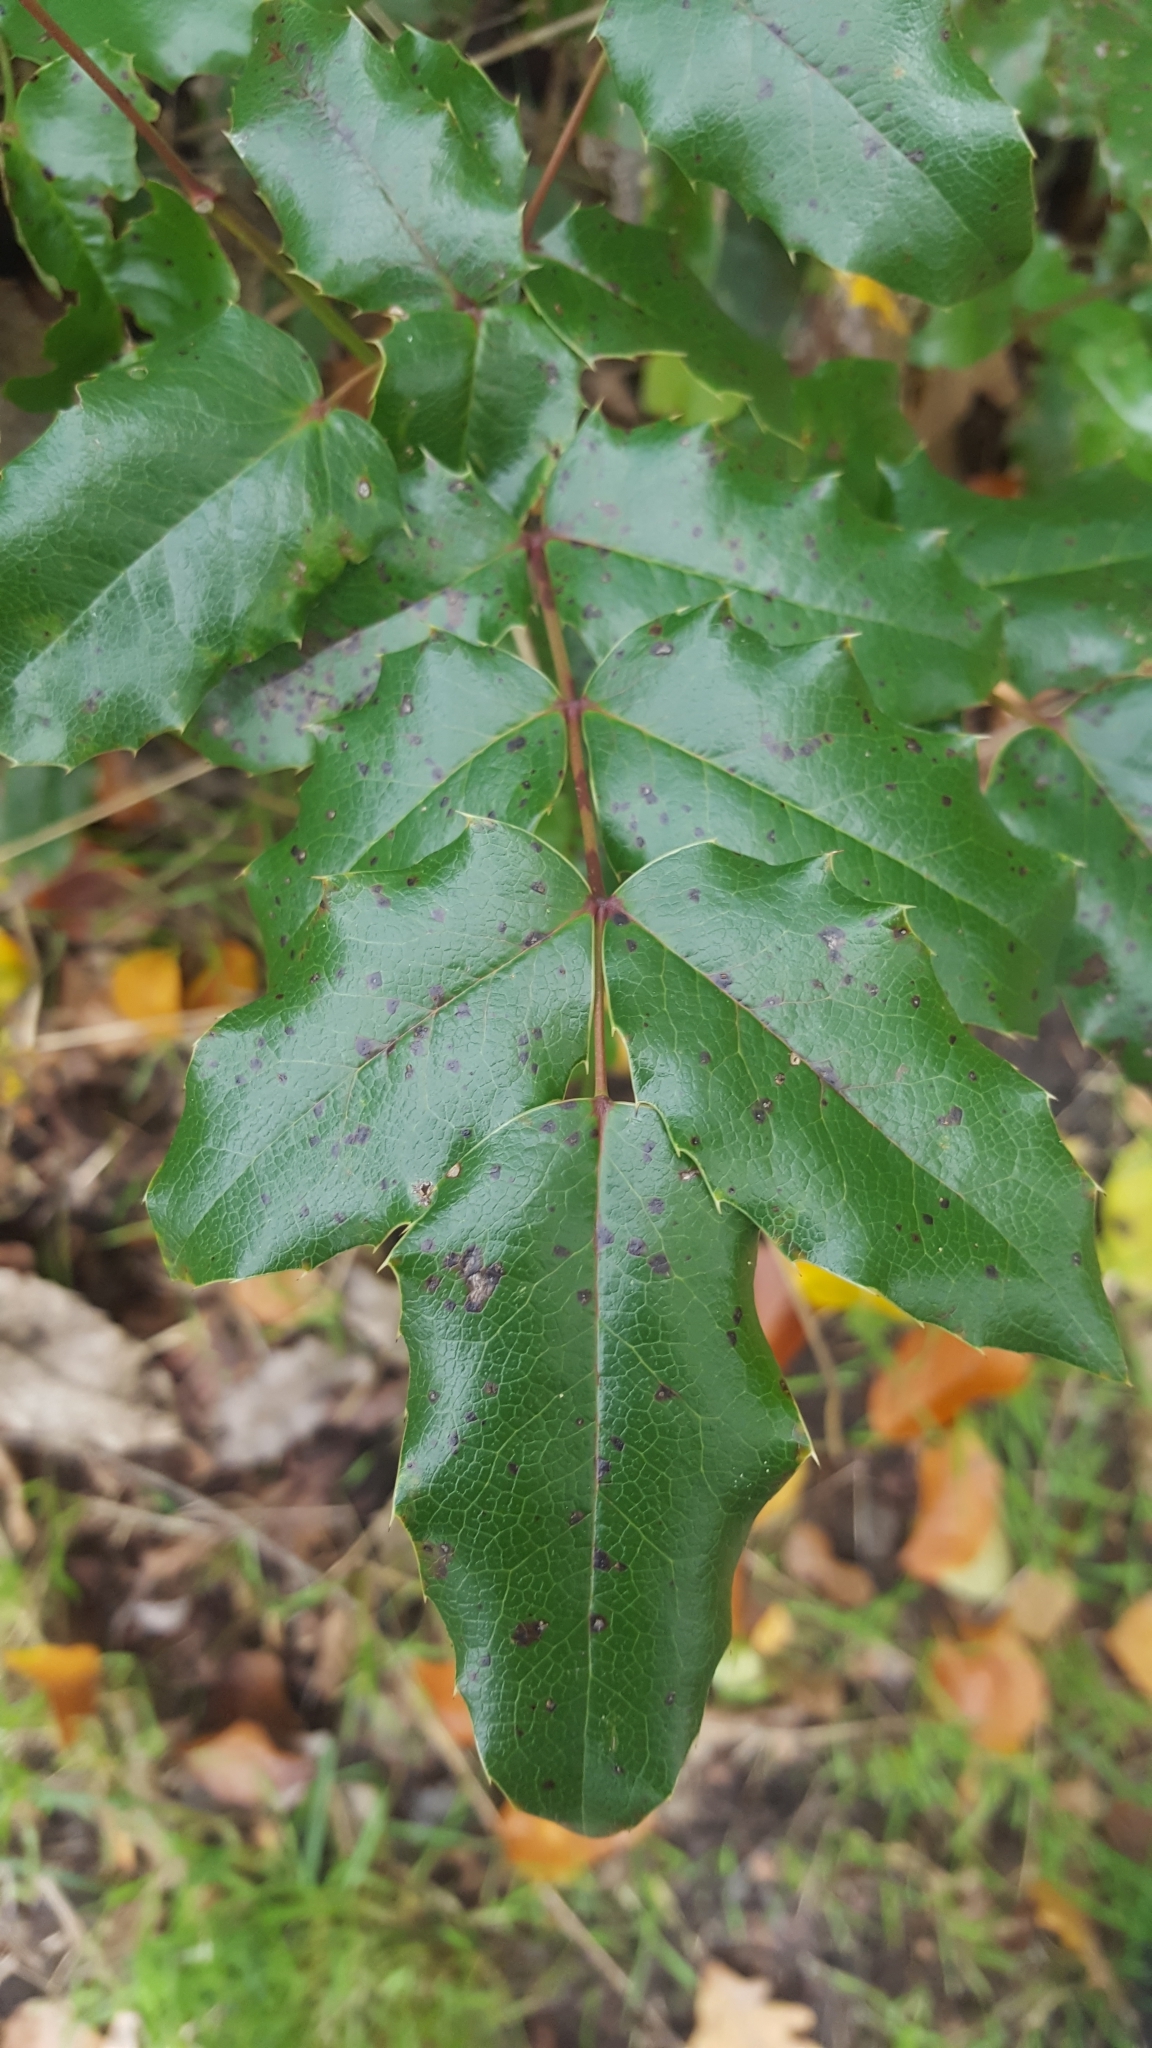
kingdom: Plantae
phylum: Tracheophyta
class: Magnoliopsida
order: Ranunculales
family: Berberidaceae
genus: Mahonia
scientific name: Mahonia aquifolium
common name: Oregon-grape
